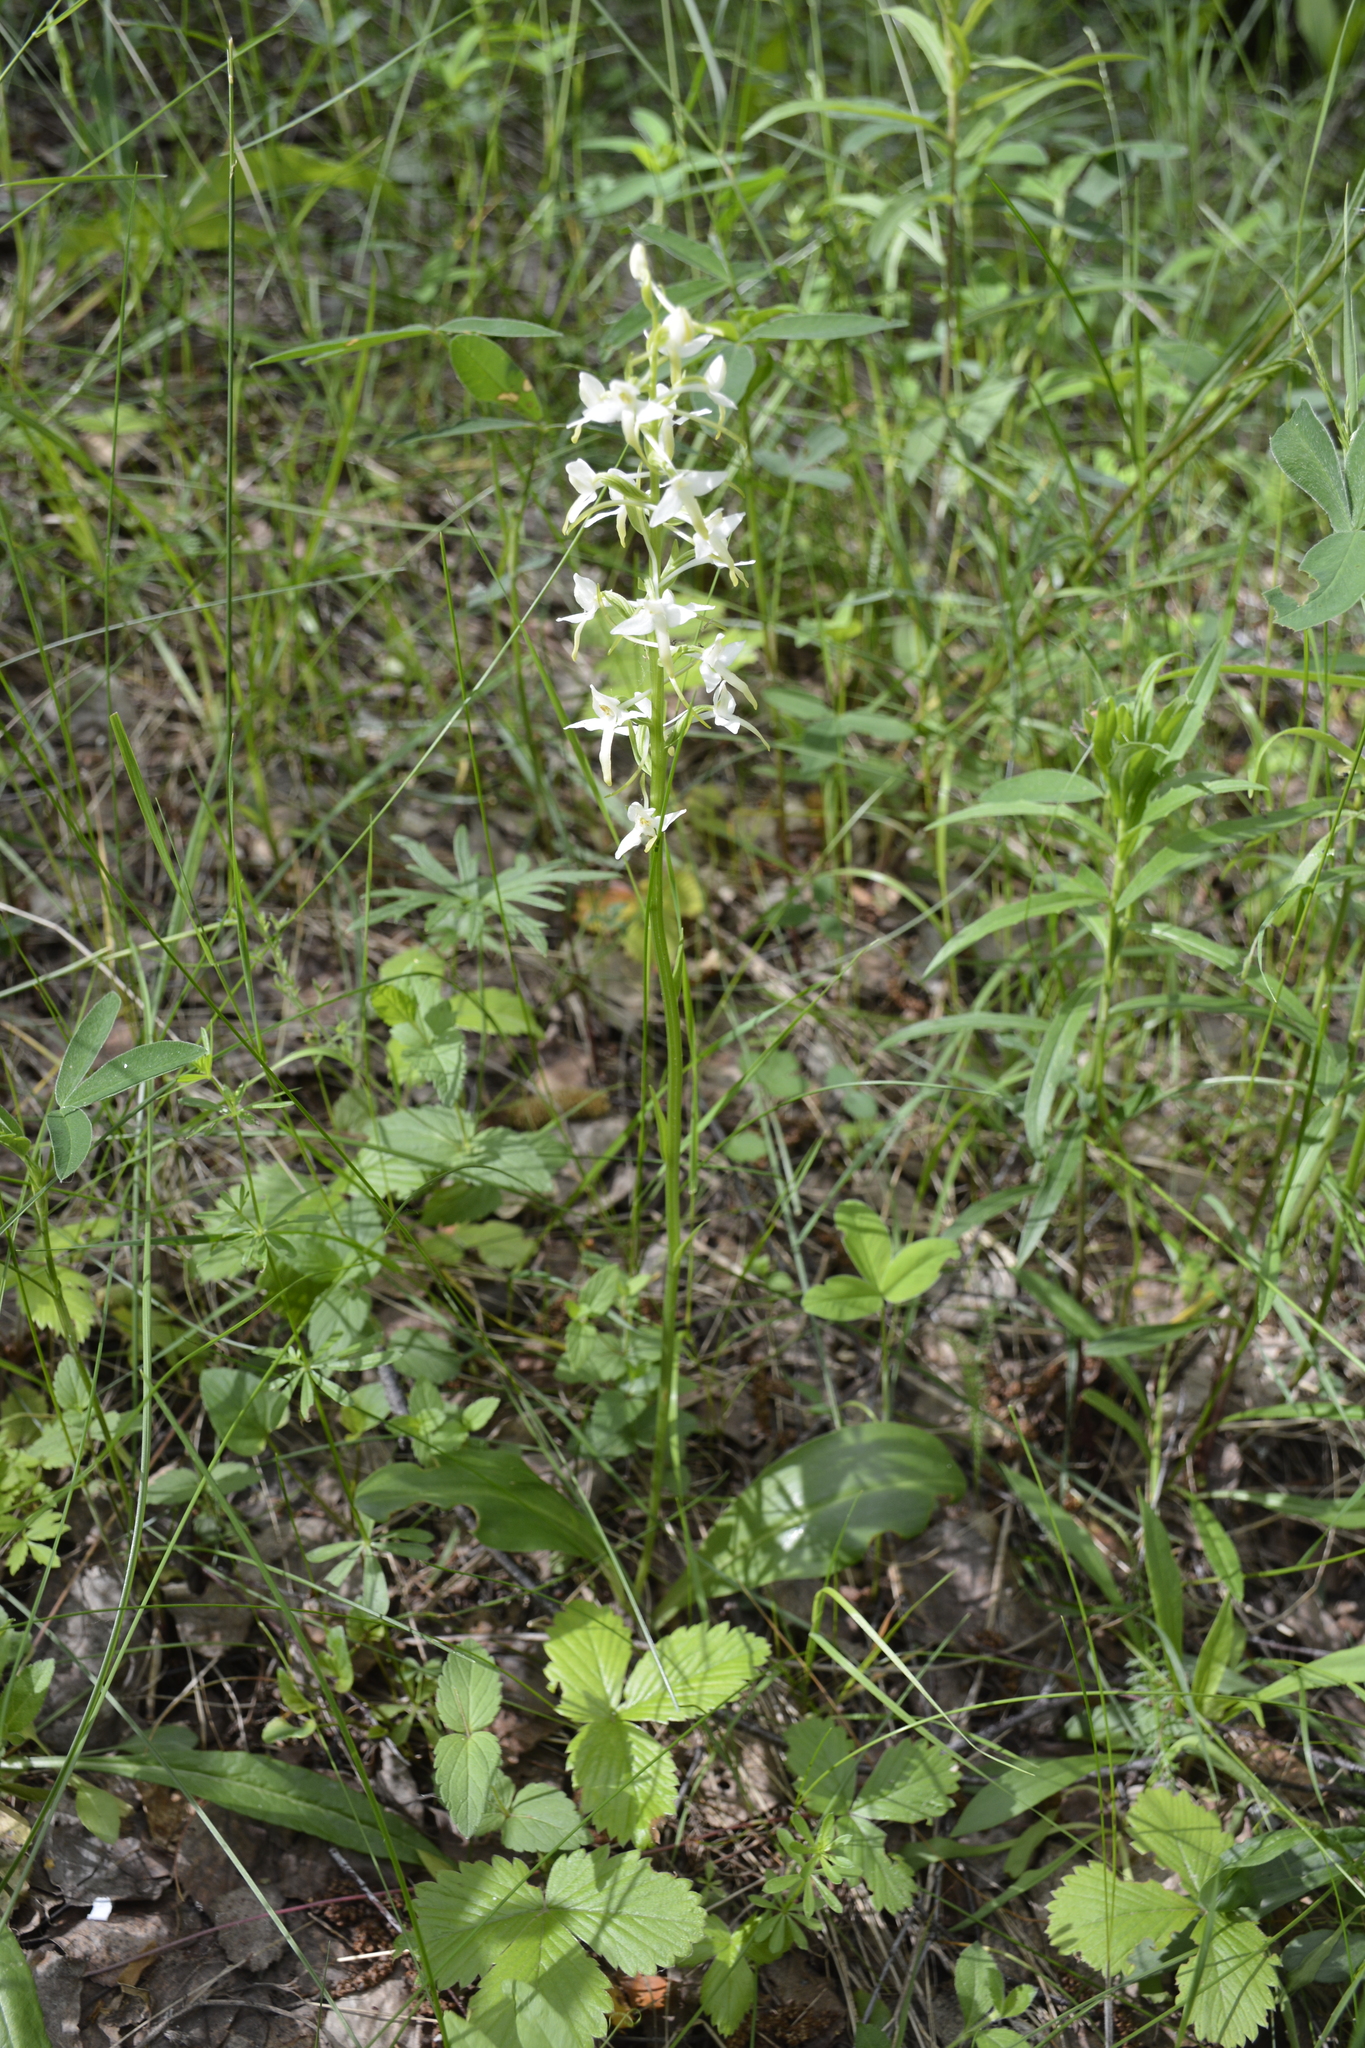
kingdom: Plantae
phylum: Tracheophyta
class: Liliopsida
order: Asparagales
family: Orchidaceae
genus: Platanthera
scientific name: Platanthera bifolia
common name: Lesser butterfly-orchid
